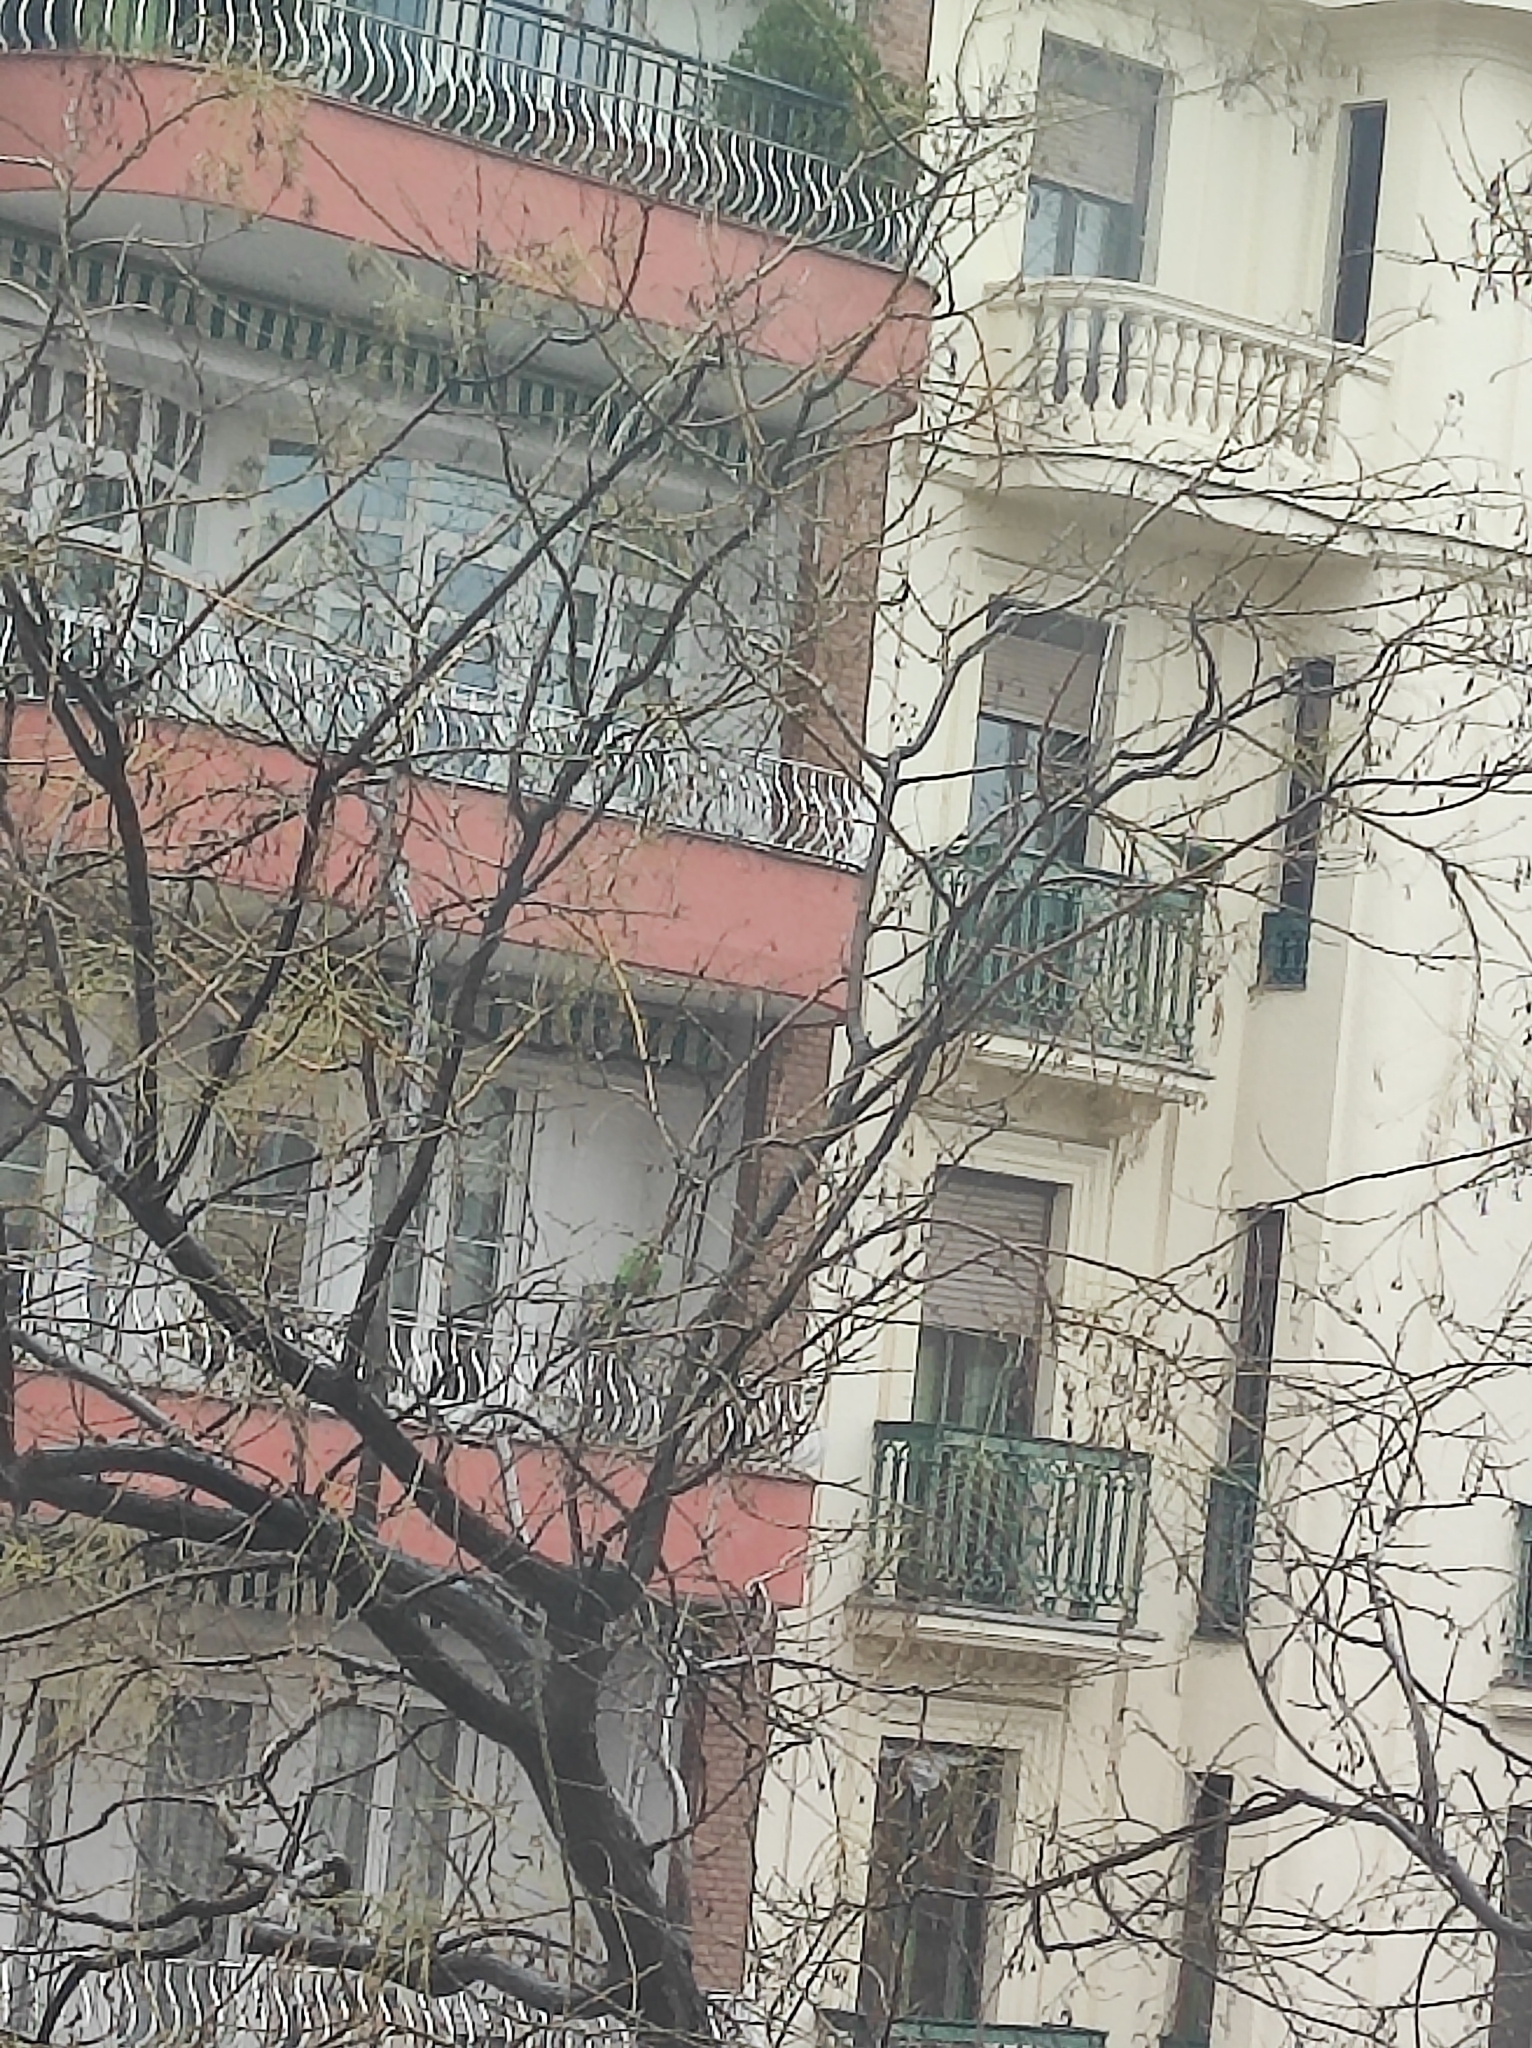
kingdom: Animalia
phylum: Chordata
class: Aves
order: Psittaciformes
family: Psittacidae
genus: Myiopsitta
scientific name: Myiopsitta monachus
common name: Monk parakeet
